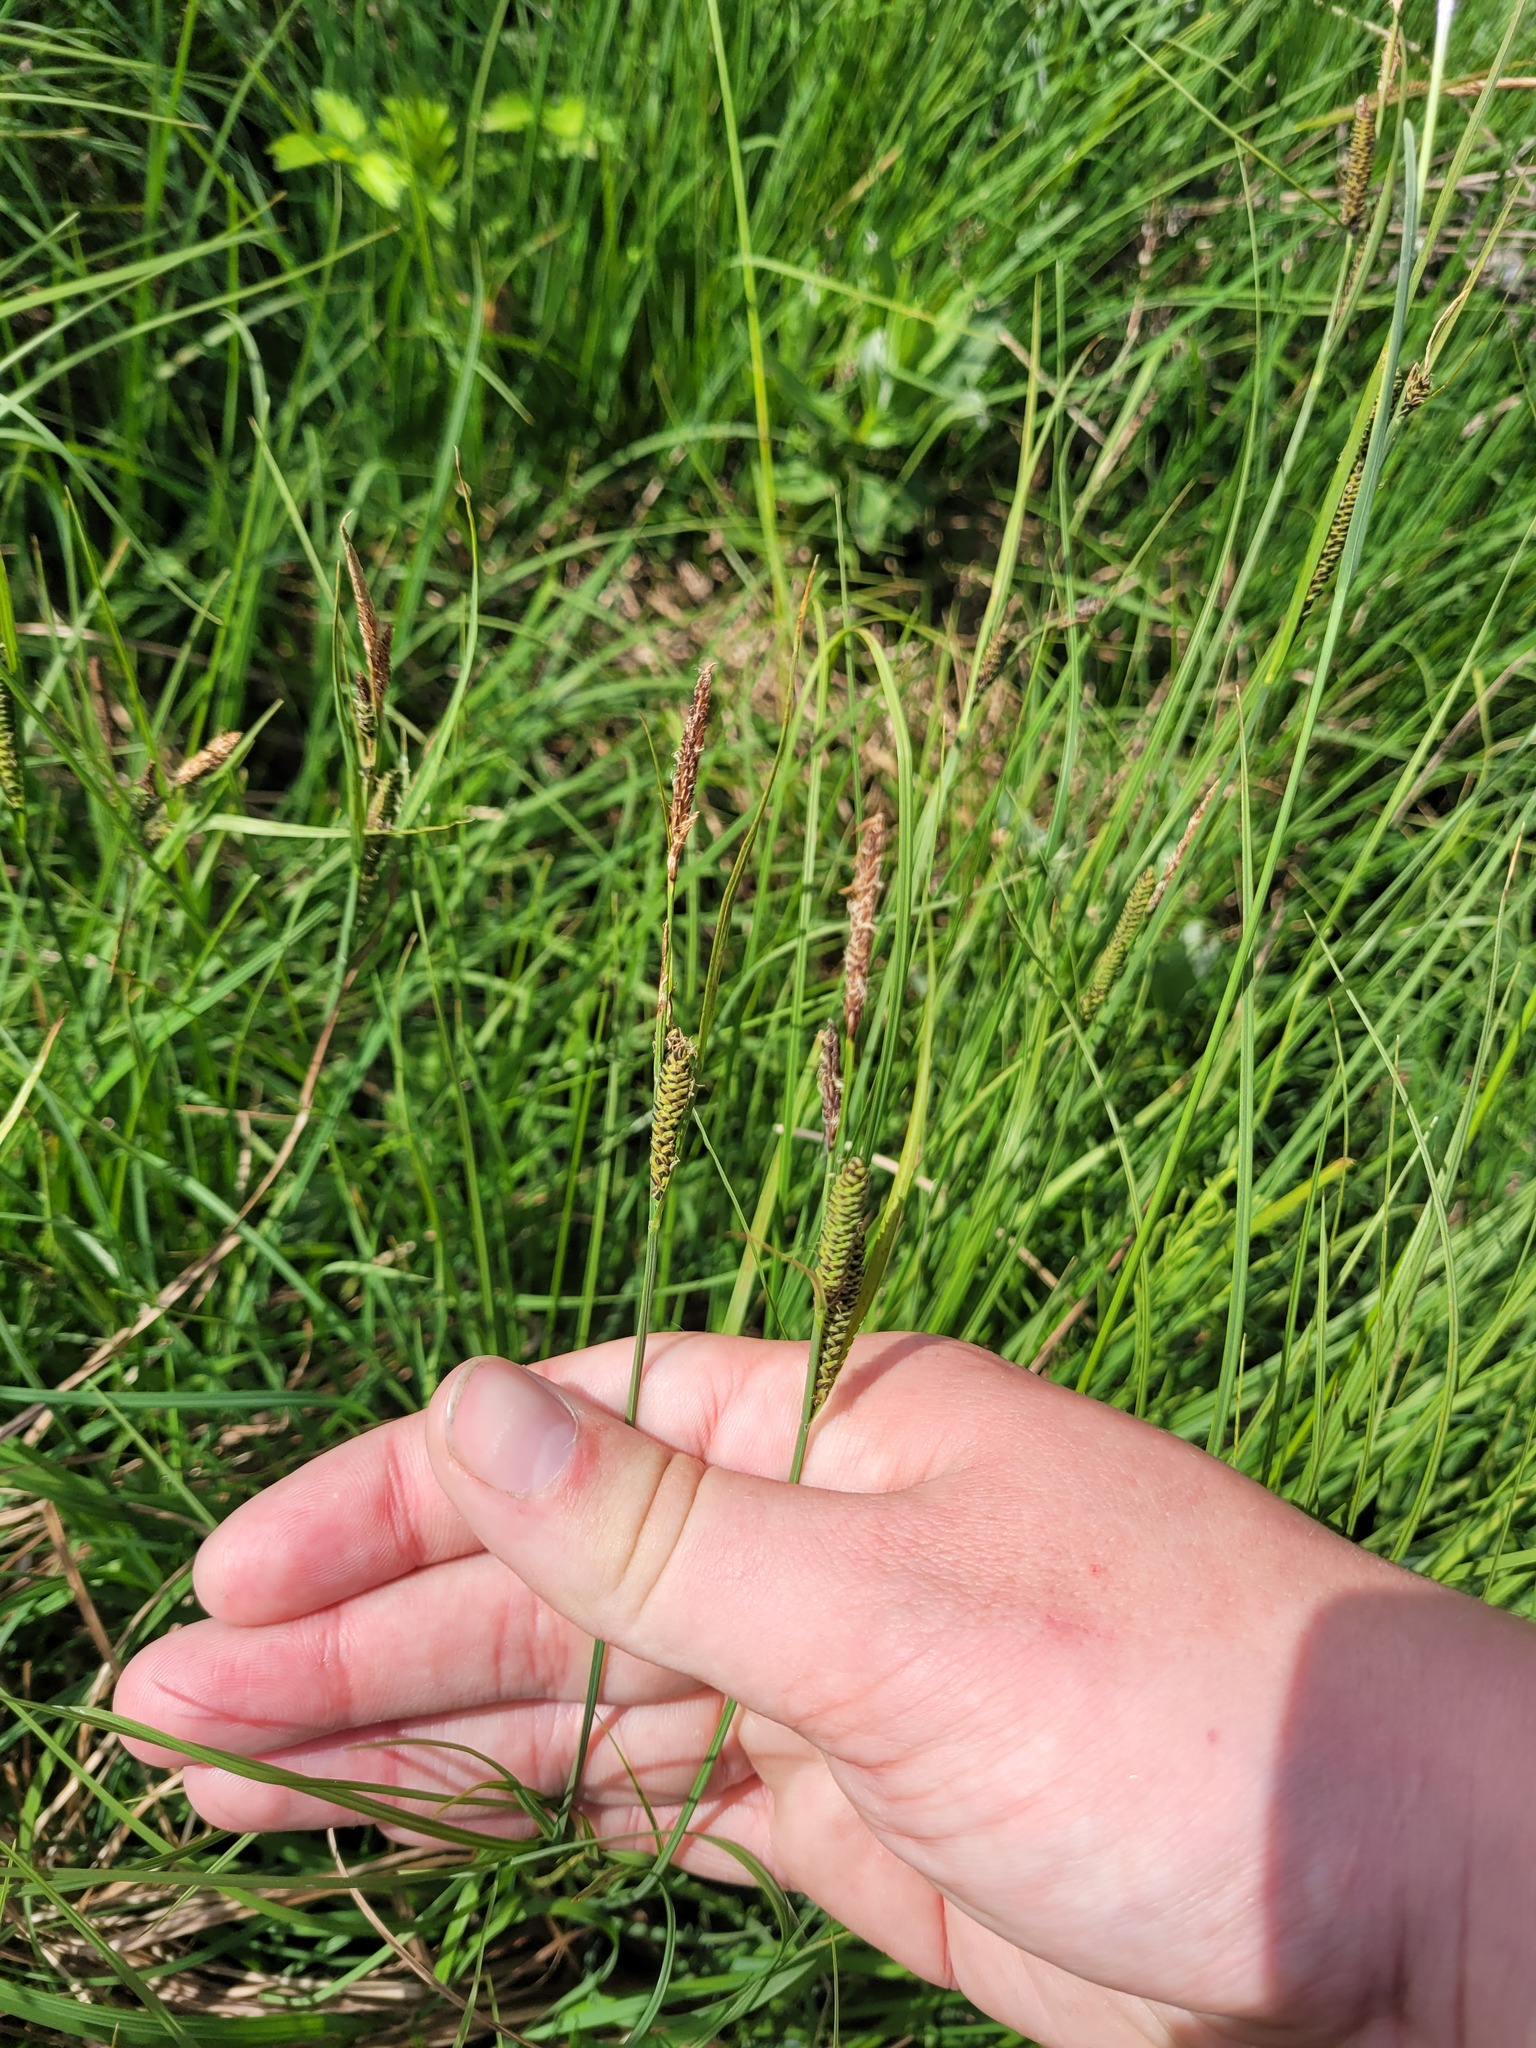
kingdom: Plantae
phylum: Tracheophyta
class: Liliopsida
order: Poales
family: Cyperaceae
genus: Carex
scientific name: Carex nigra
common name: Common sedge
